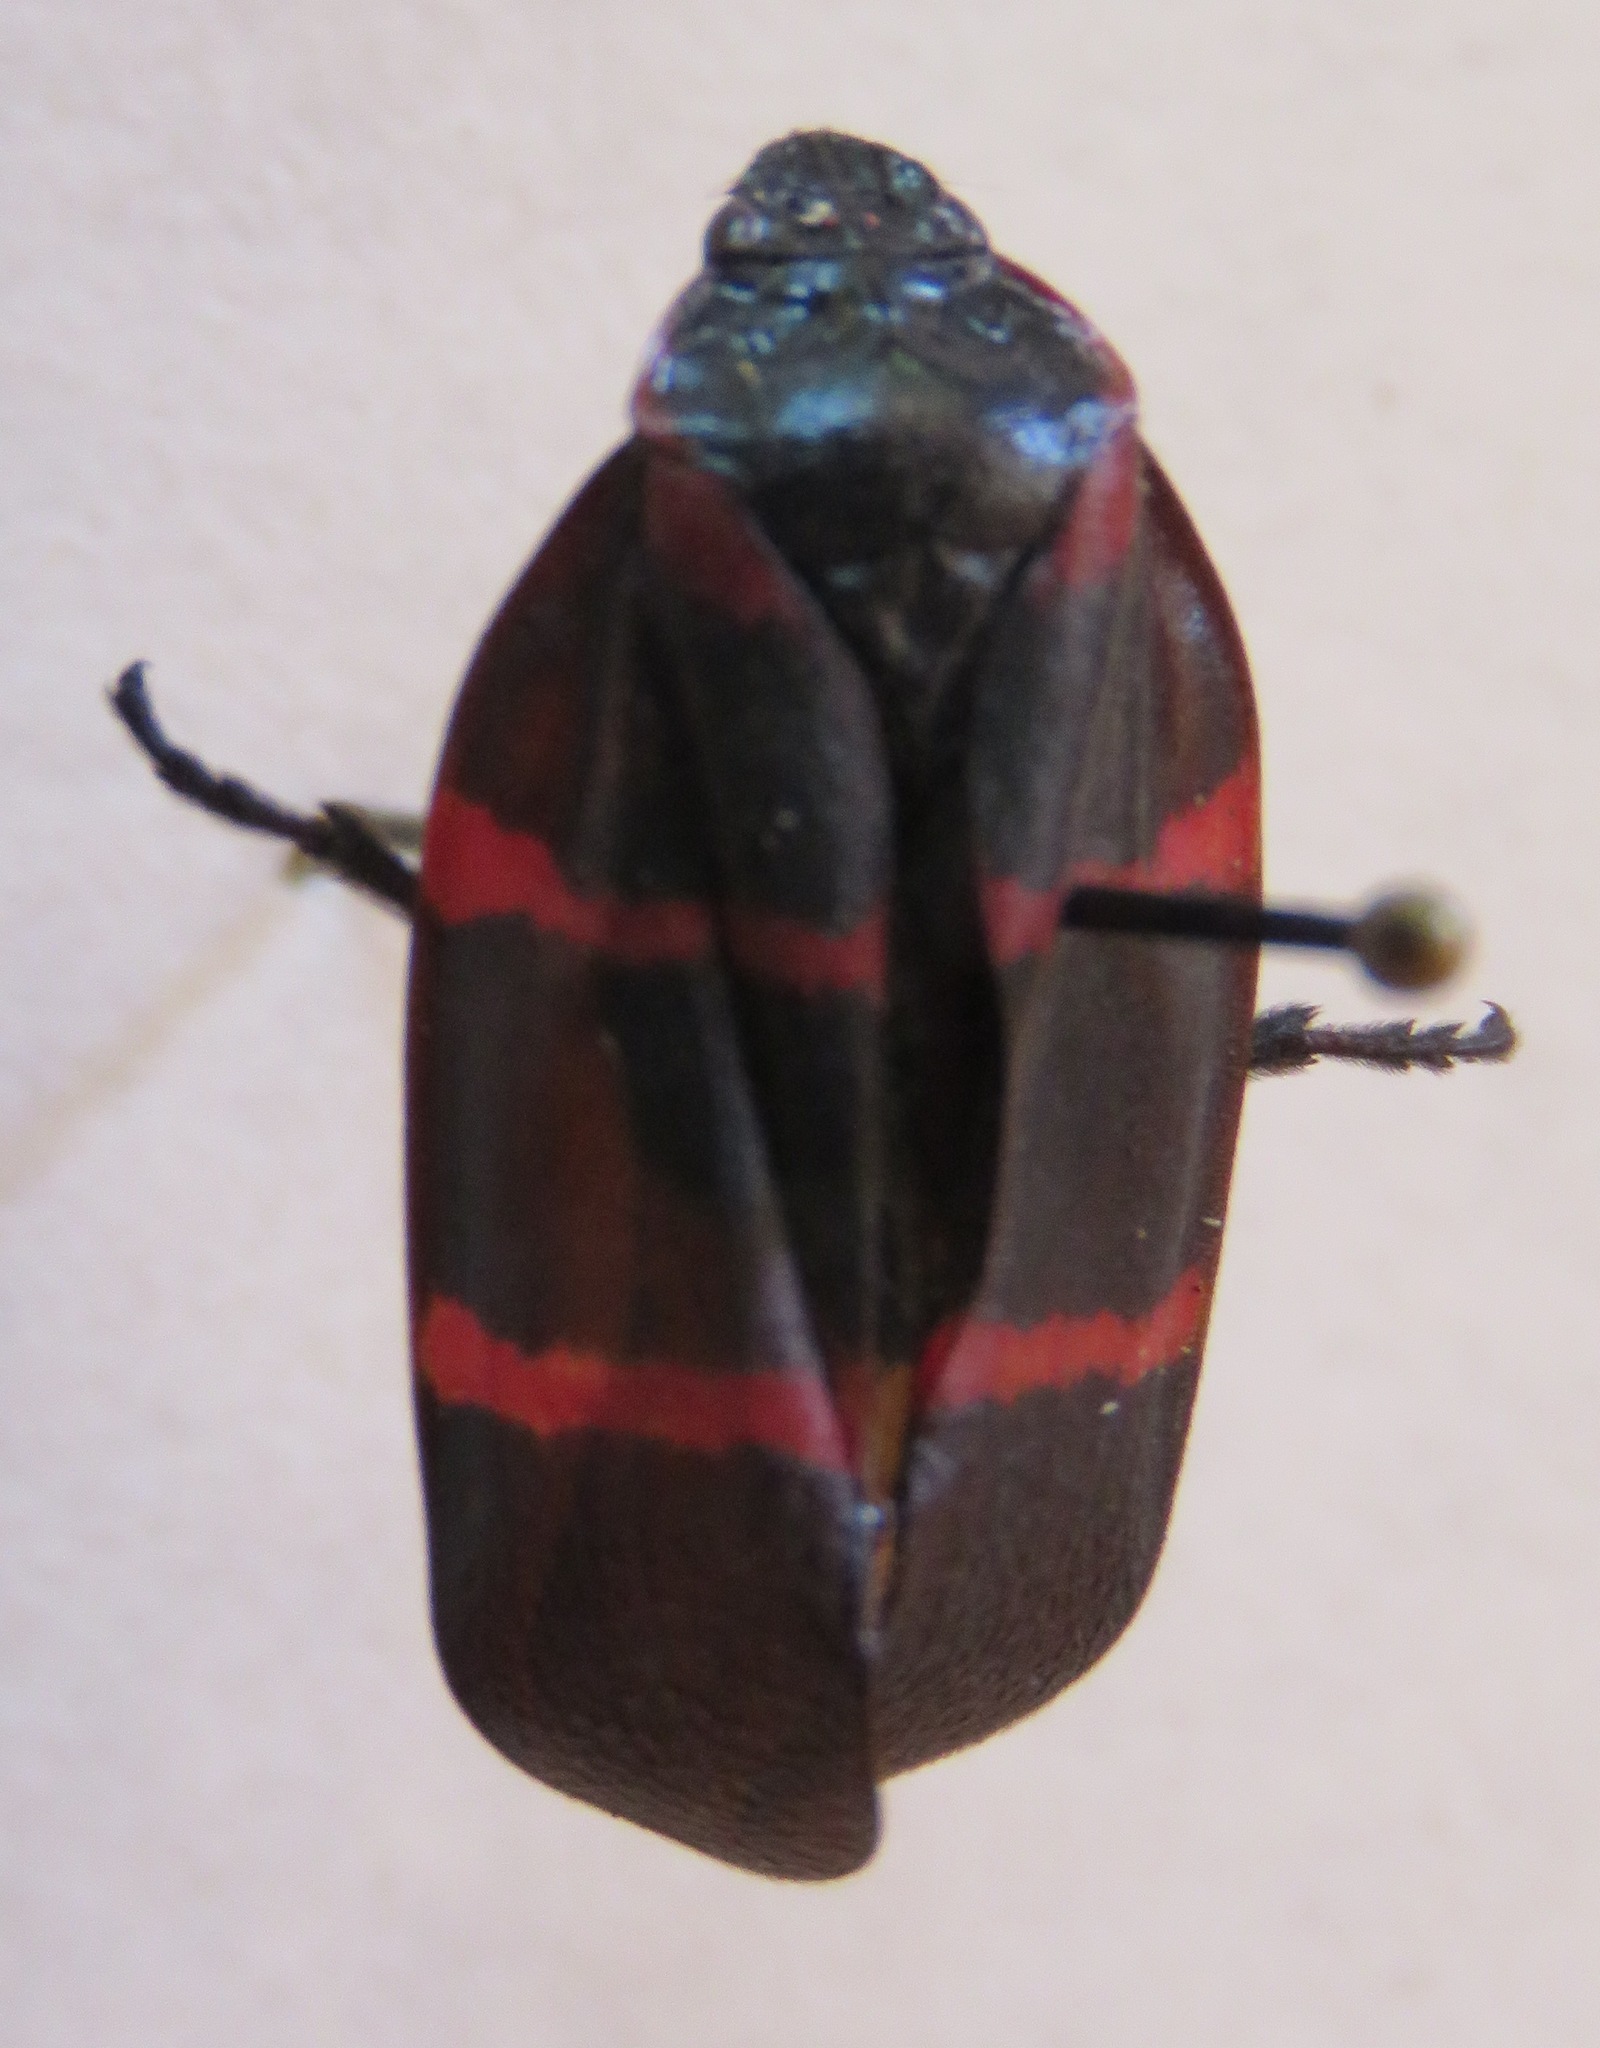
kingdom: Animalia
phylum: Arthropoda
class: Insecta
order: Hemiptera
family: Cercopidae
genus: Huaina
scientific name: Huaina inca
